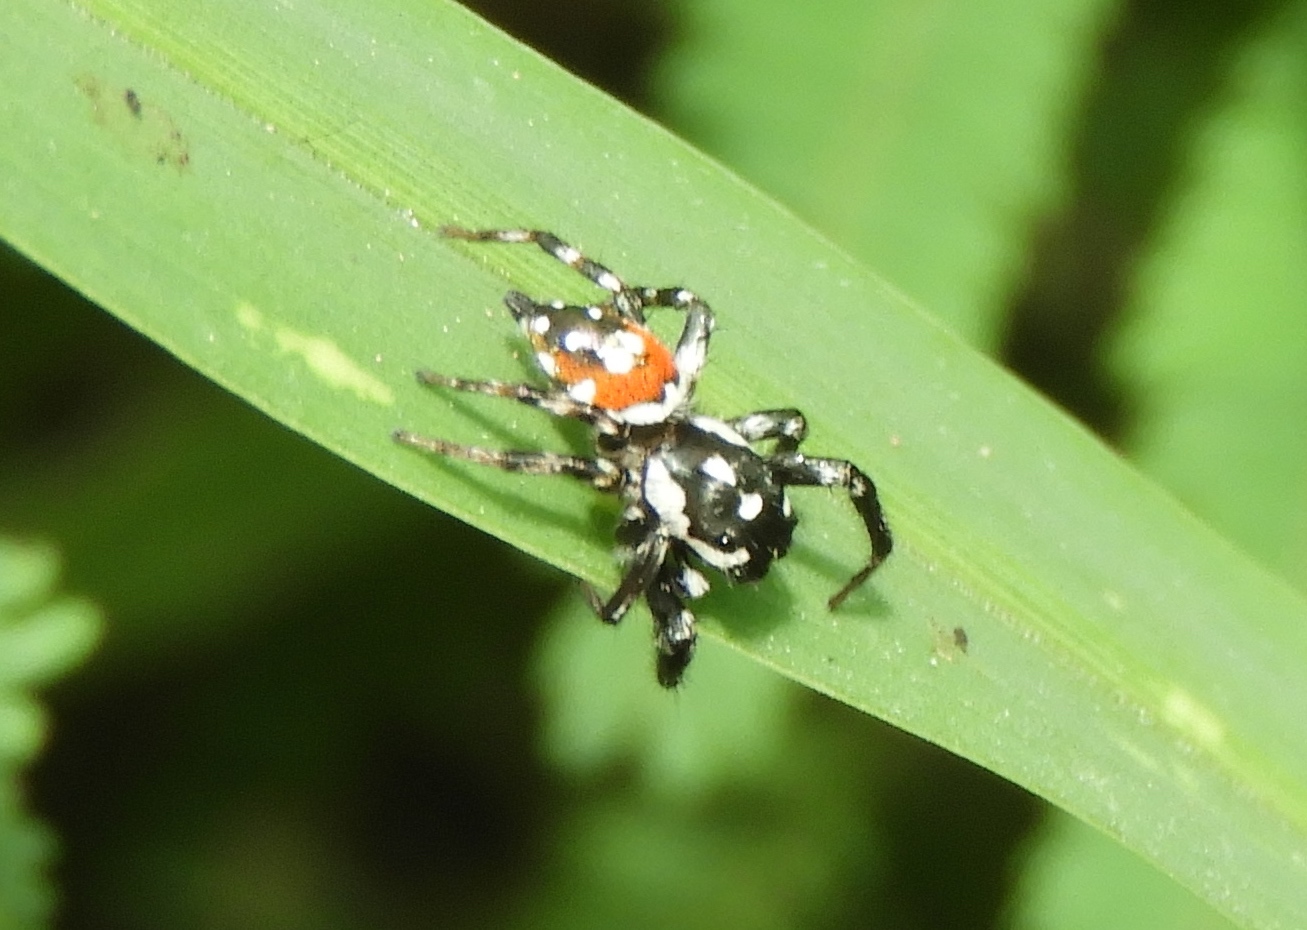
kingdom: Animalia
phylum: Arthropoda
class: Arachnida
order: Araneae
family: Salticidae
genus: Nycerella
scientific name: Nycerella delecta
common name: Jumping spiders
